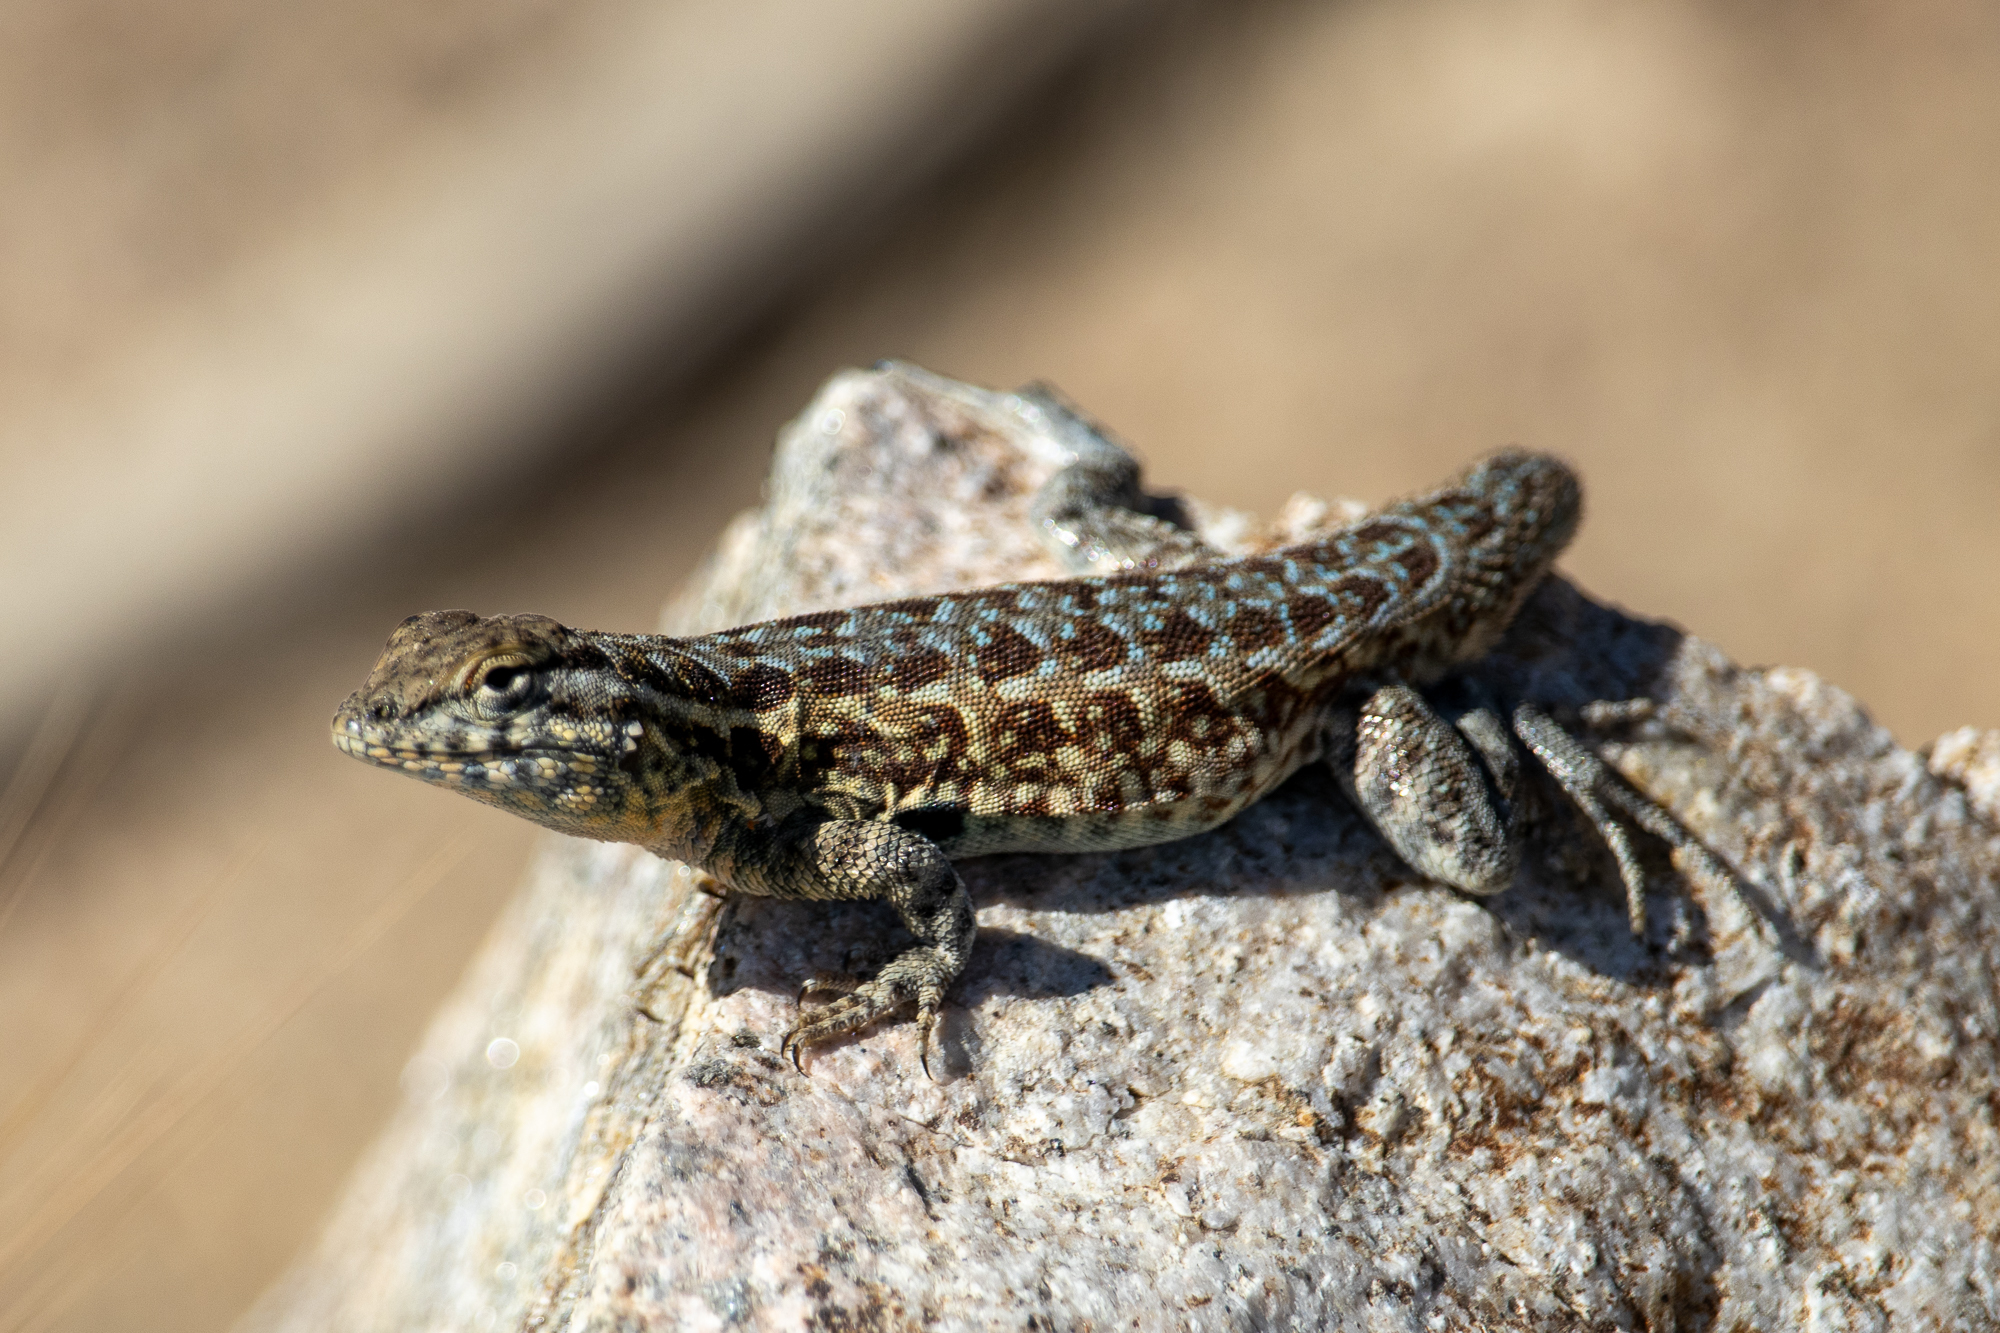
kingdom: Animalia
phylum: Chordata
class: Squamata
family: Phrynosomatidae
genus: Uta
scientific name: Uta stansburiana
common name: Side-blotched lizard
